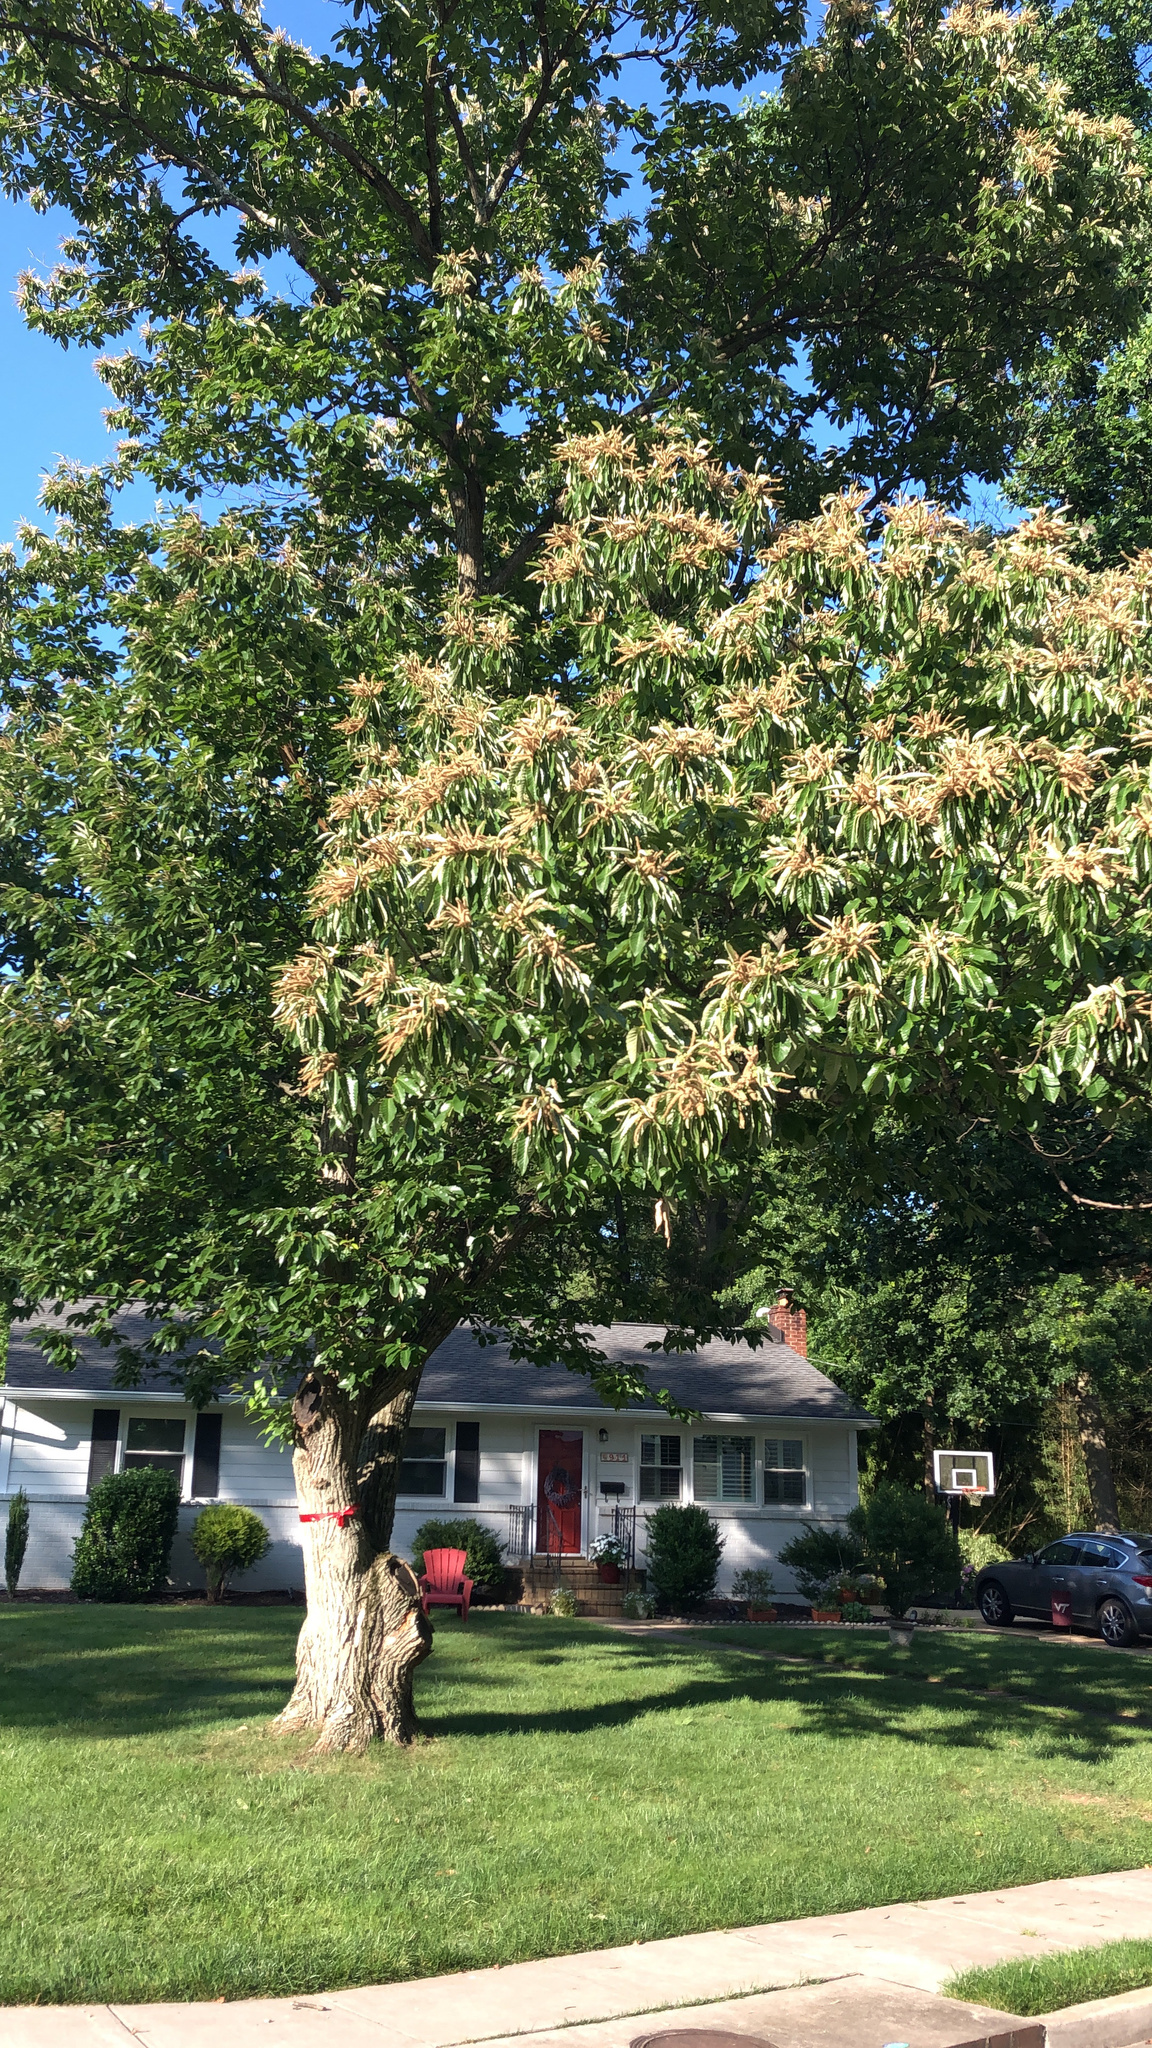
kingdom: Plantae
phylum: Tracheophyta
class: Magnoliopsida
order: Fagales
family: Fagaceae
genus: Castanea
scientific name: Castanea mollissima
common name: Chinese chestnut
